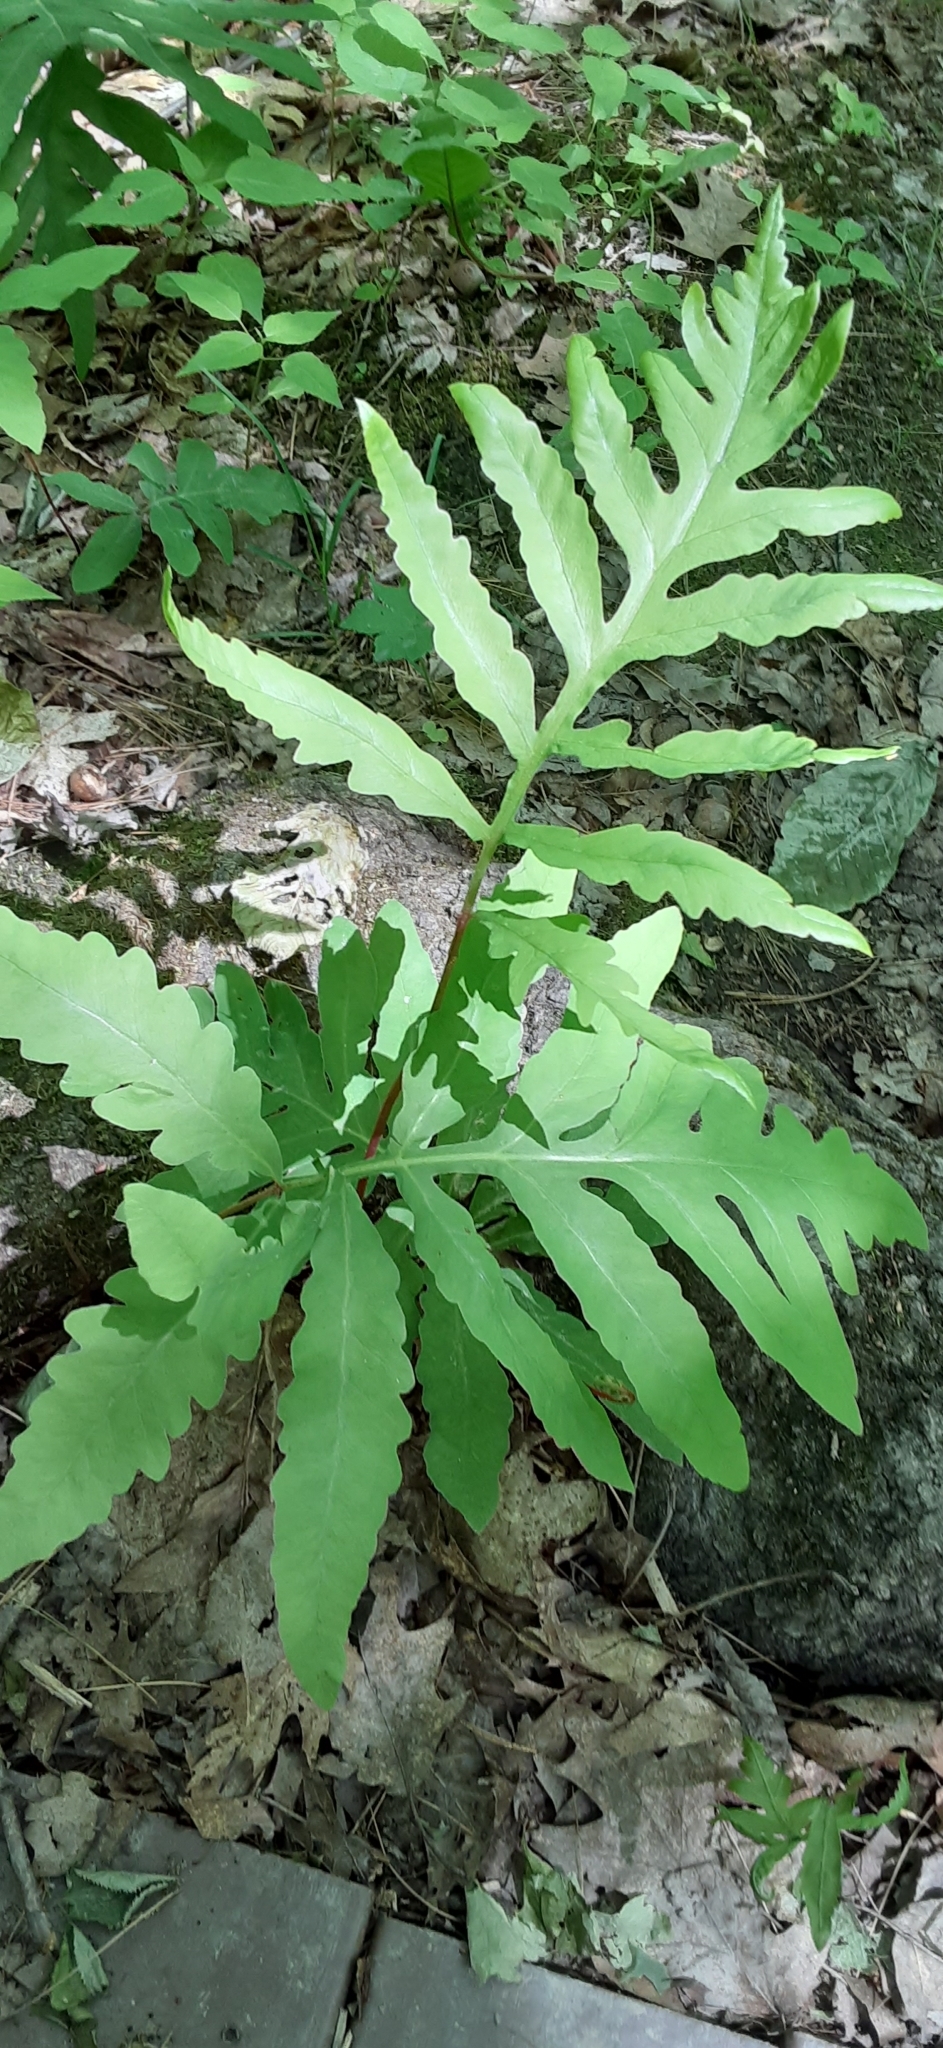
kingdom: Plantae
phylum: Tracheophyta
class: Polypodiopsida
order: Polypodiales
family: Onocleaceae
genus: Onoclea
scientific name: Onoclea sensibilis
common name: Sensitive fern
